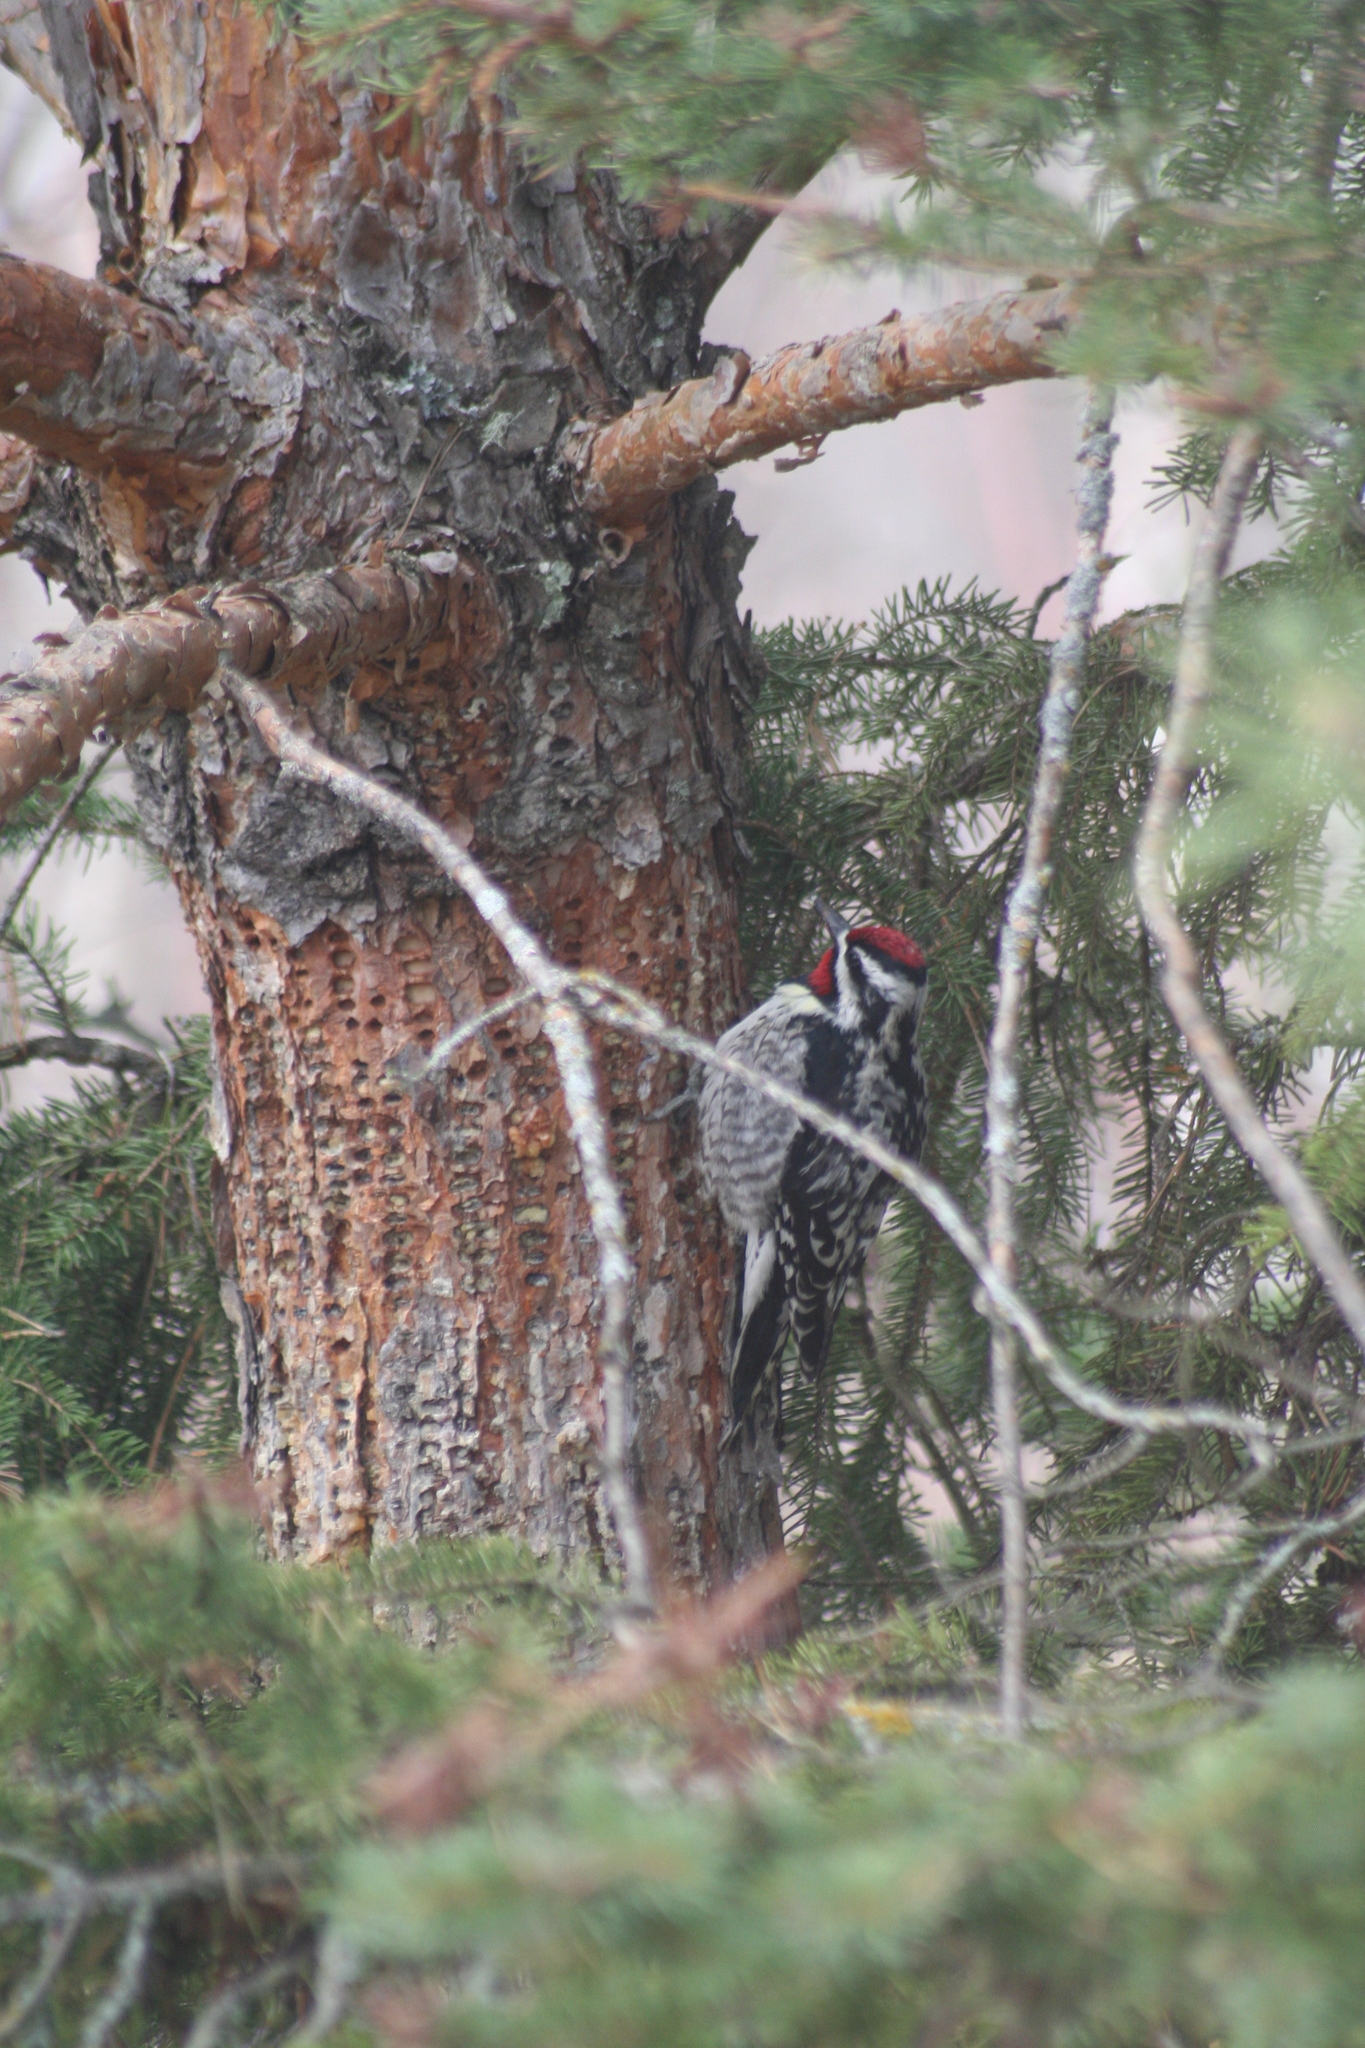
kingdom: Animalia
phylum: Chordata
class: Aves
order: Piciformes
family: Picidae
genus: Sphyrapicus
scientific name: Sphyrapicus varius
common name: Yellow-bellied sapsucker
